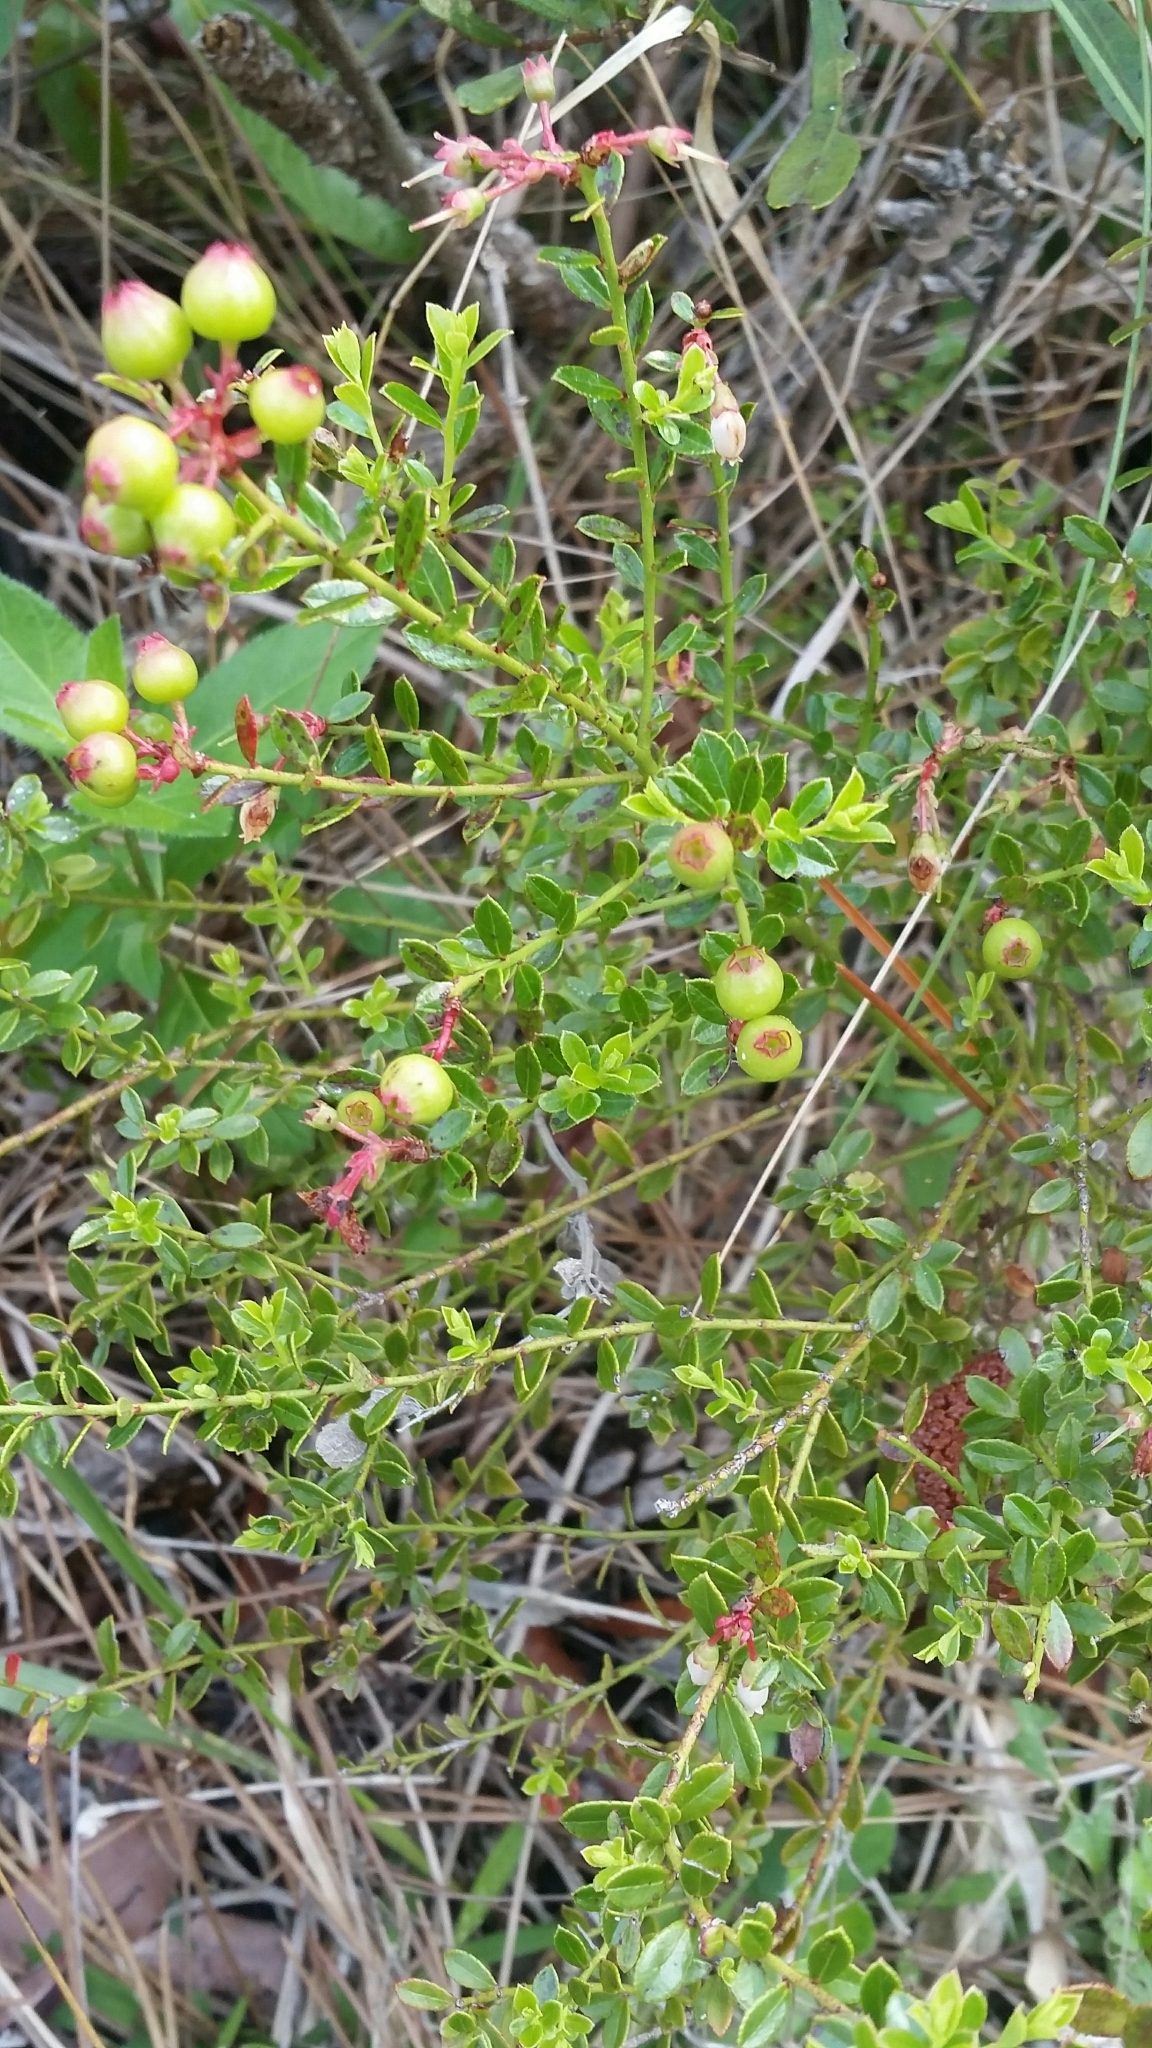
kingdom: Plantae
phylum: Tracheophyta
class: Magnoliopsida
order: Ericales
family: Ericaceae
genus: Vaccinium
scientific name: Vaccinium myrsinites
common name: Evergreen blueberry
